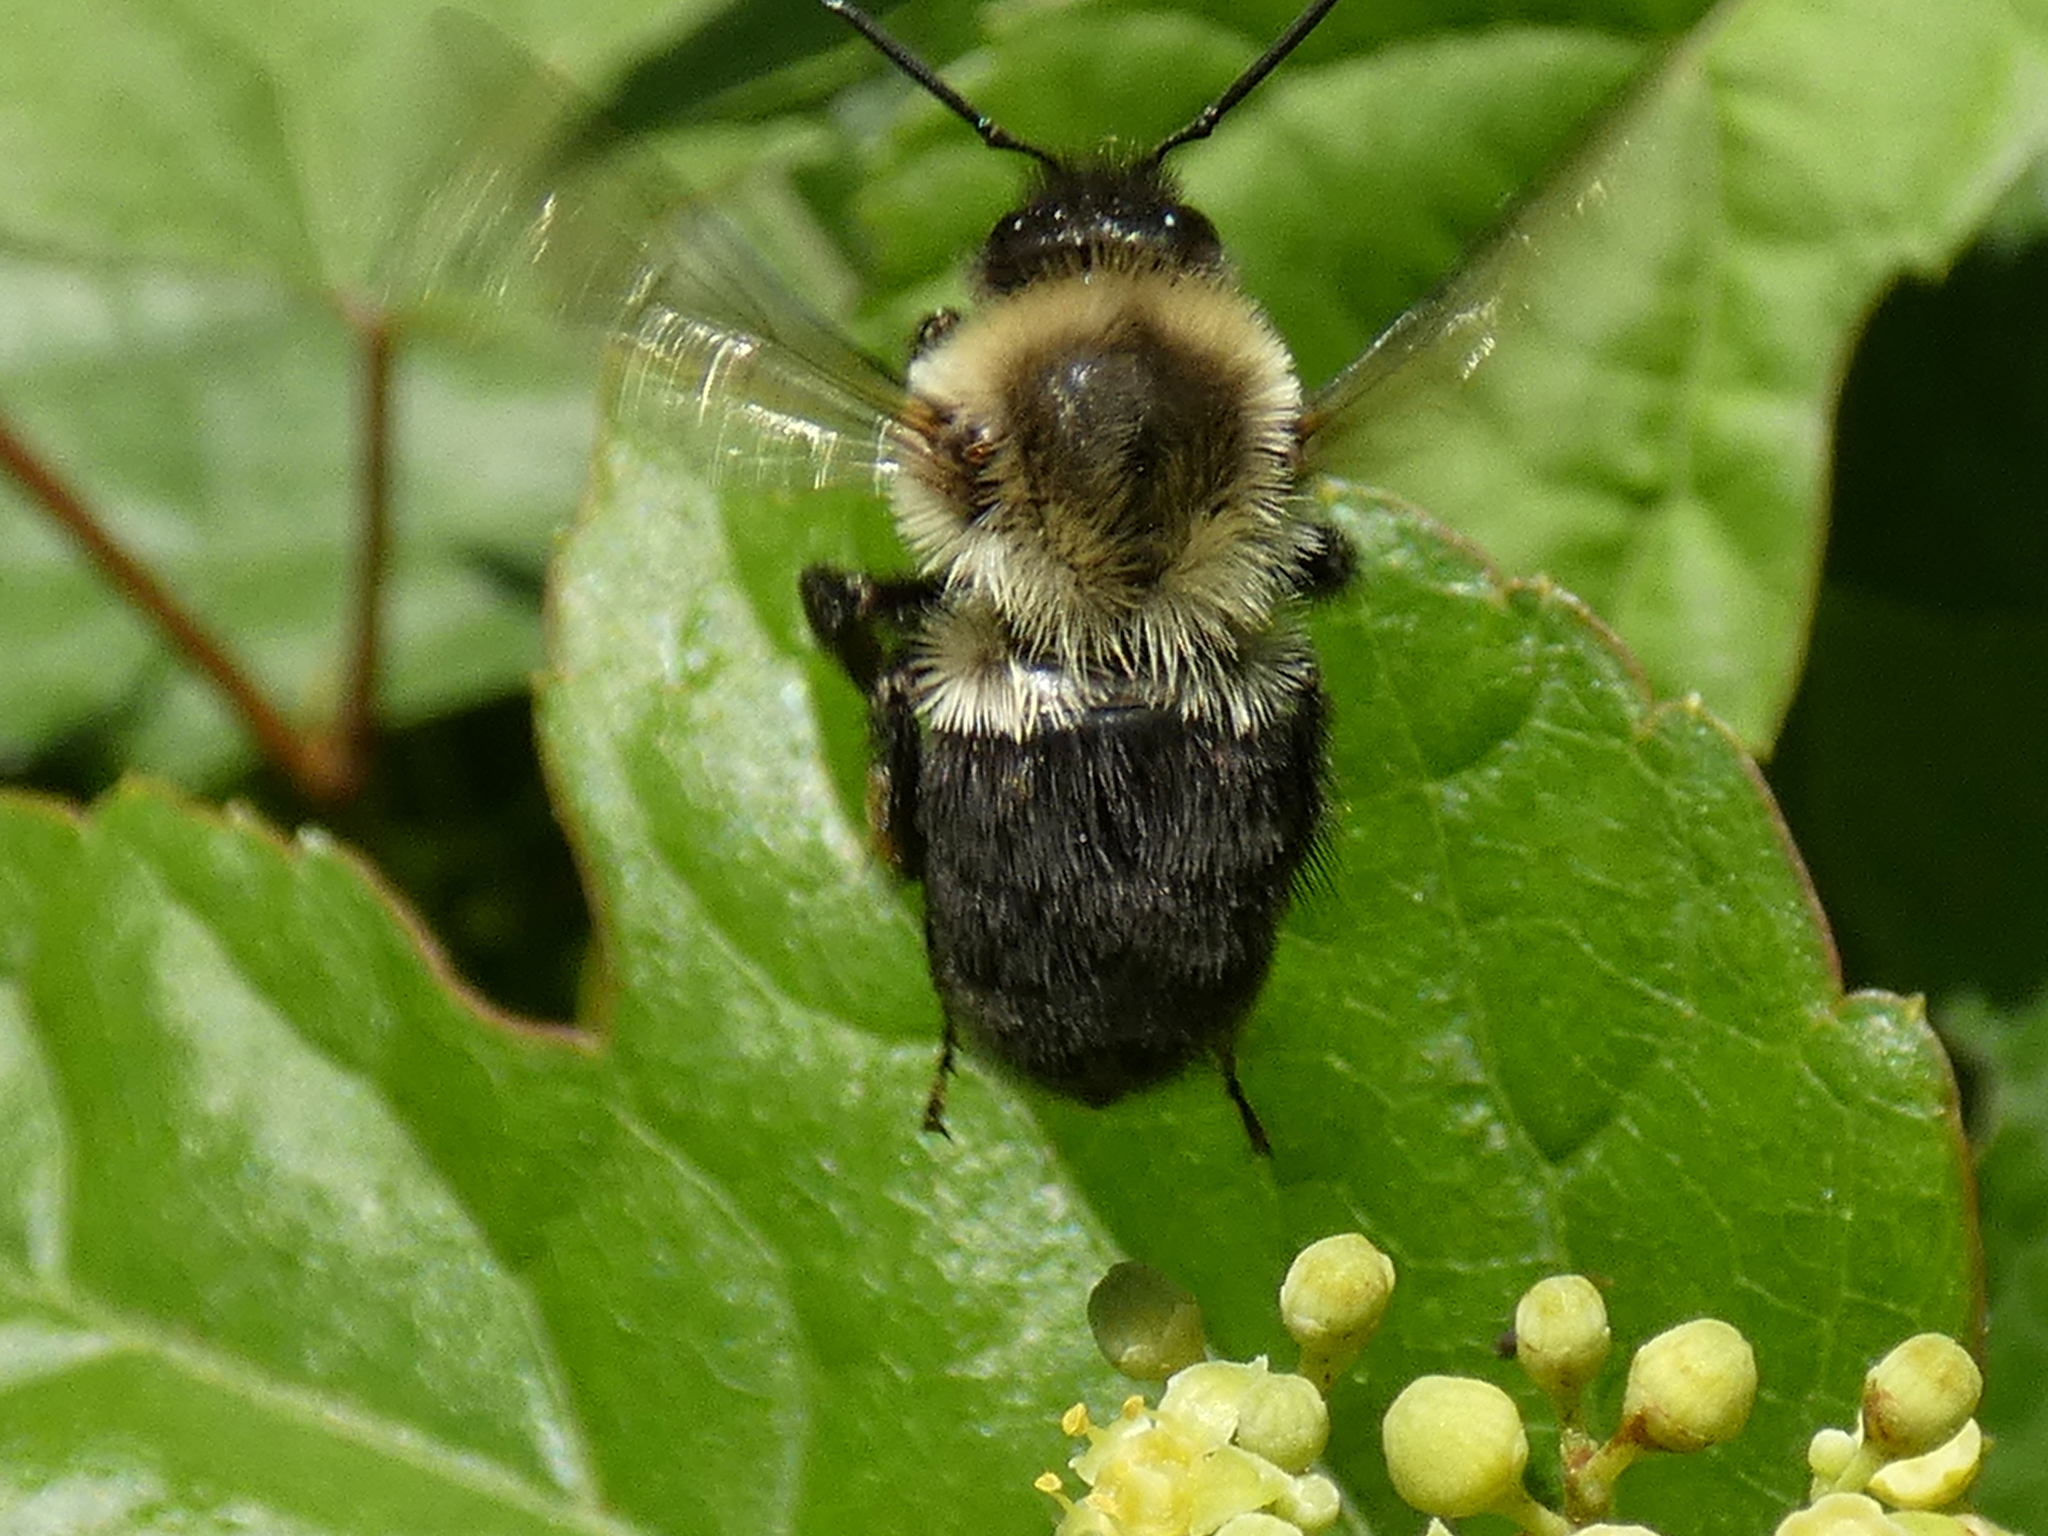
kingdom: Animalia
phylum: Arthropoda
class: Insecta
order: Hymenoptera
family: Apidae
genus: Bombus
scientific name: Bombus impatiens
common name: Common eastern bumble bee
